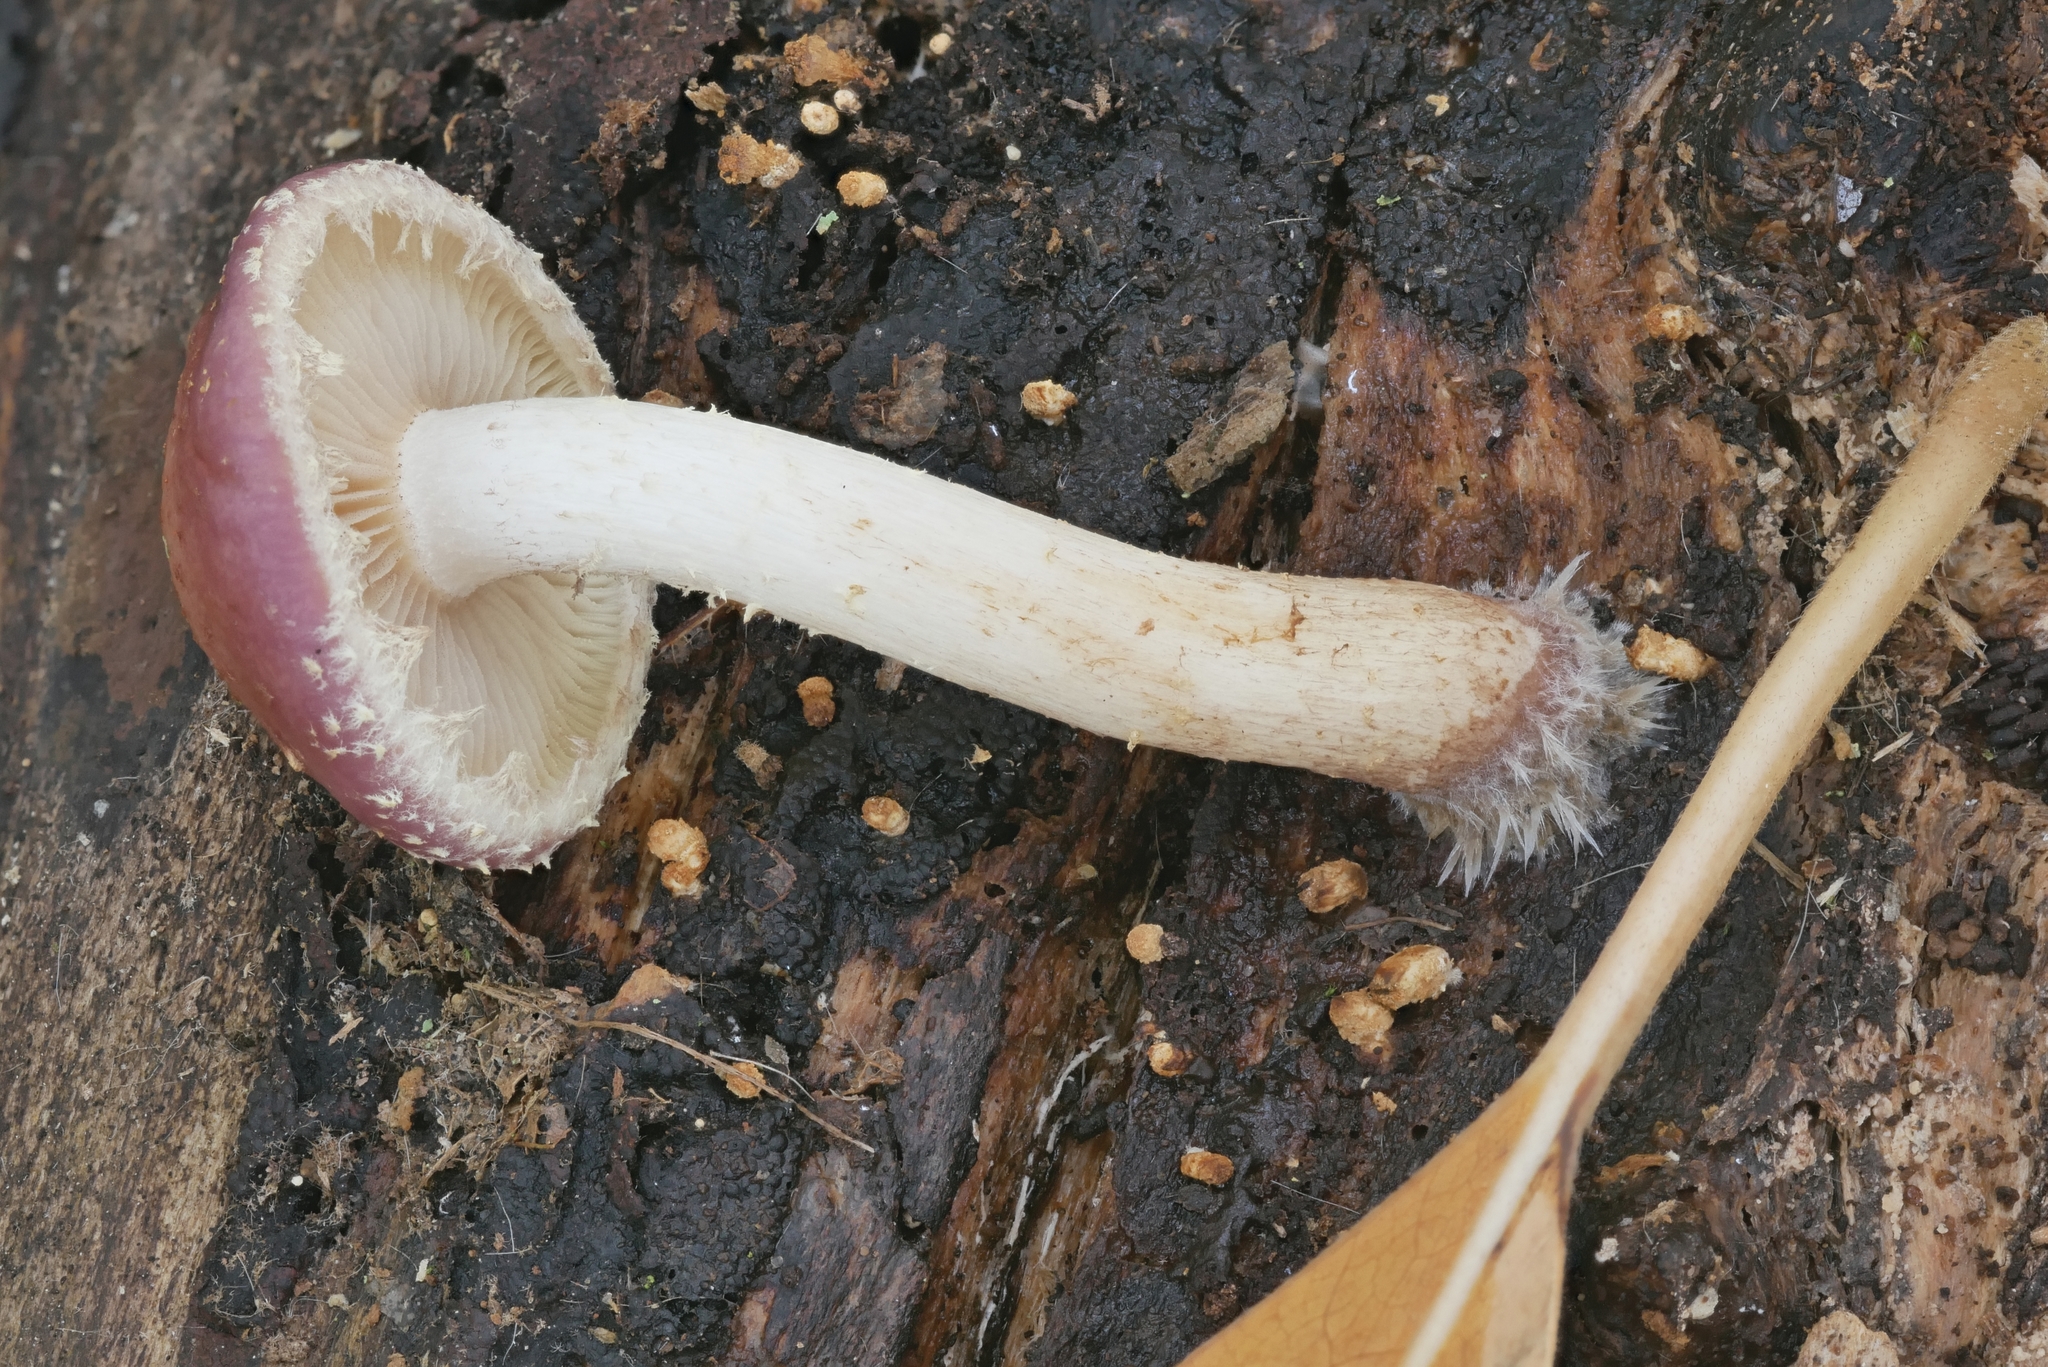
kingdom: Fungi
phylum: Basidiomycota
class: Agaricomycetes
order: Agaricales
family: Strophariaceae
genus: Pholiota
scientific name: Pholiota polychroa
